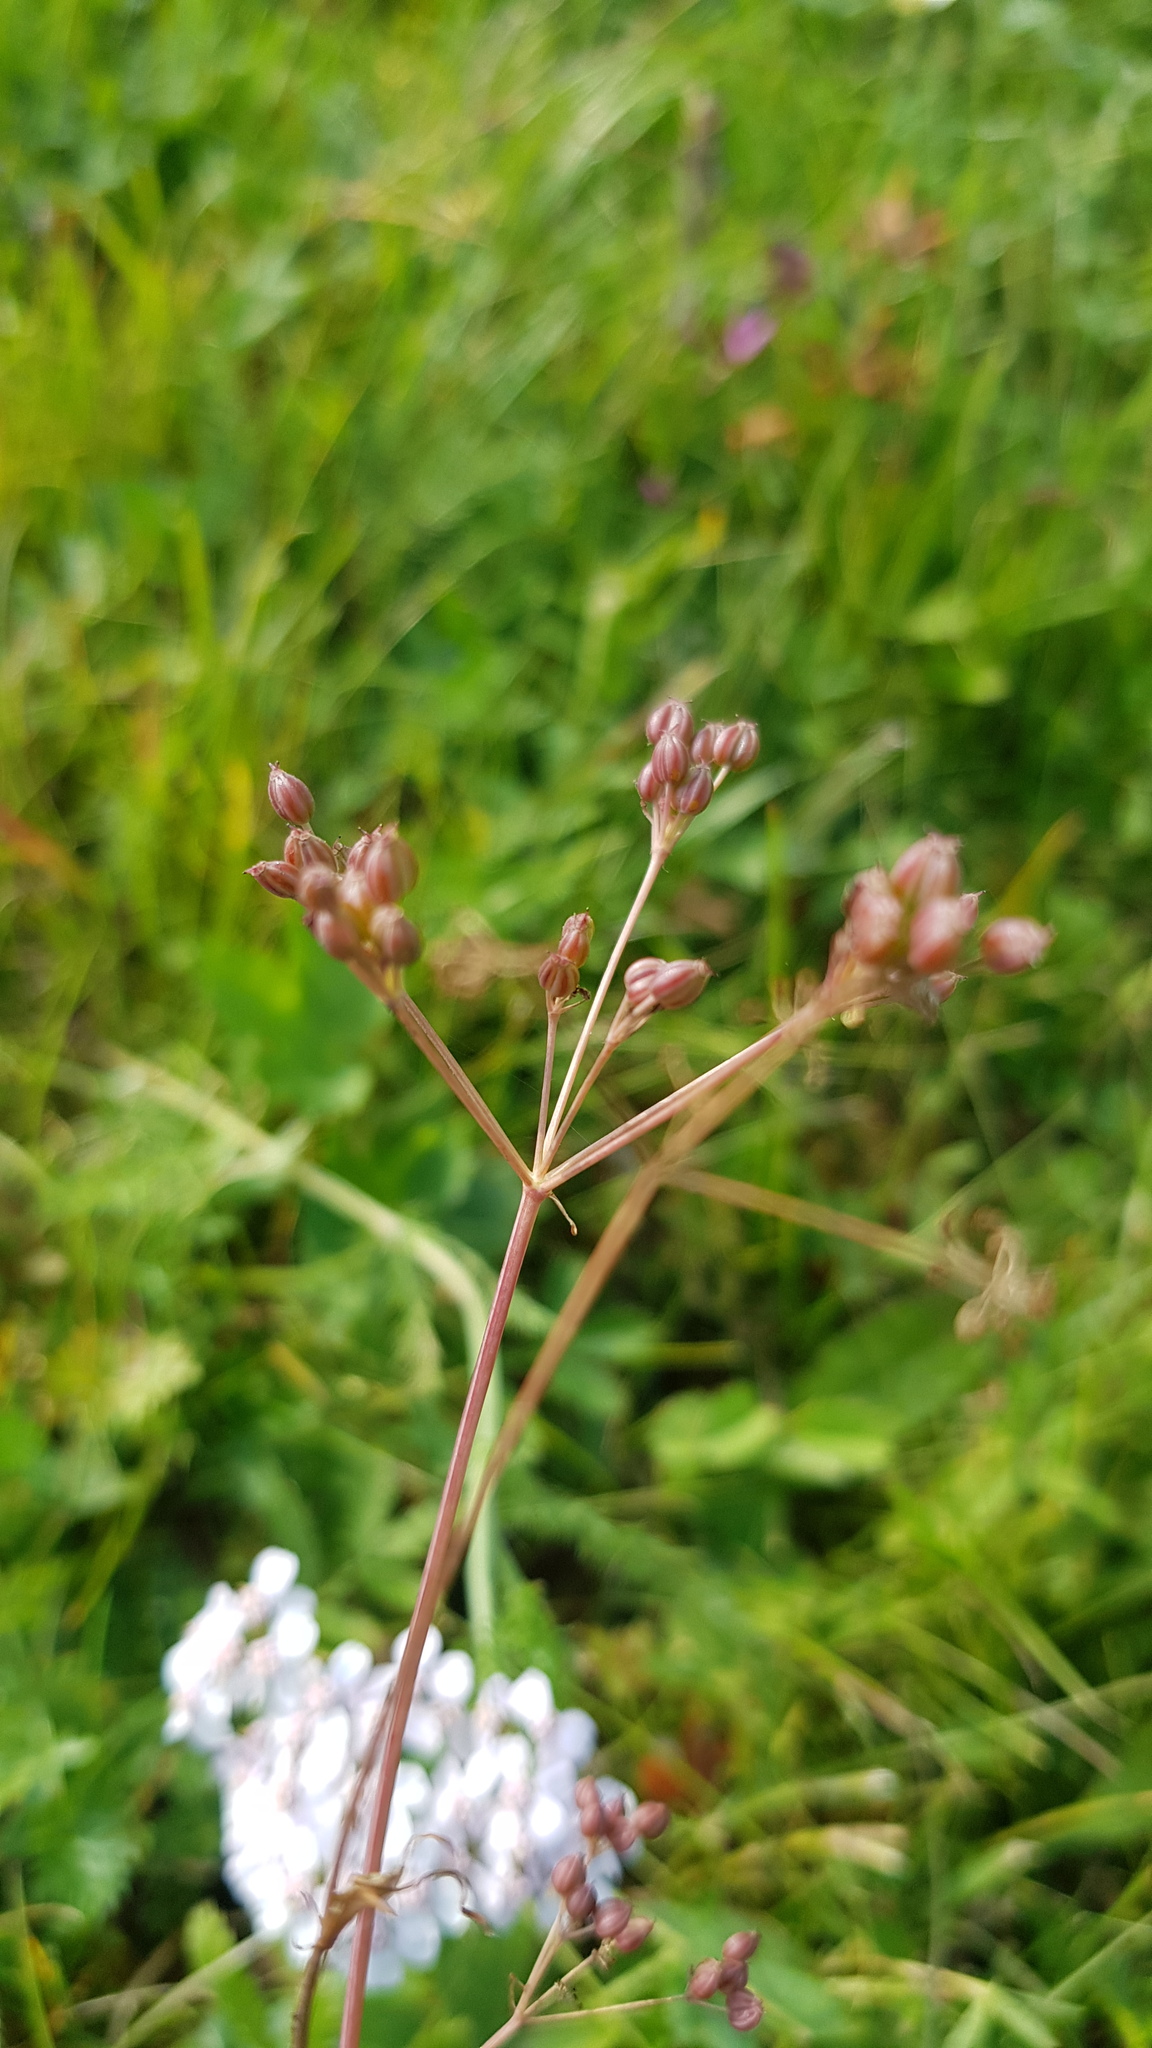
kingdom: Plantae
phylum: Tracheophyta
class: Magnoliopsida
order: Apiales
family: Apiaceae
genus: Carum
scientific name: Carum carvi
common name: Caraway
